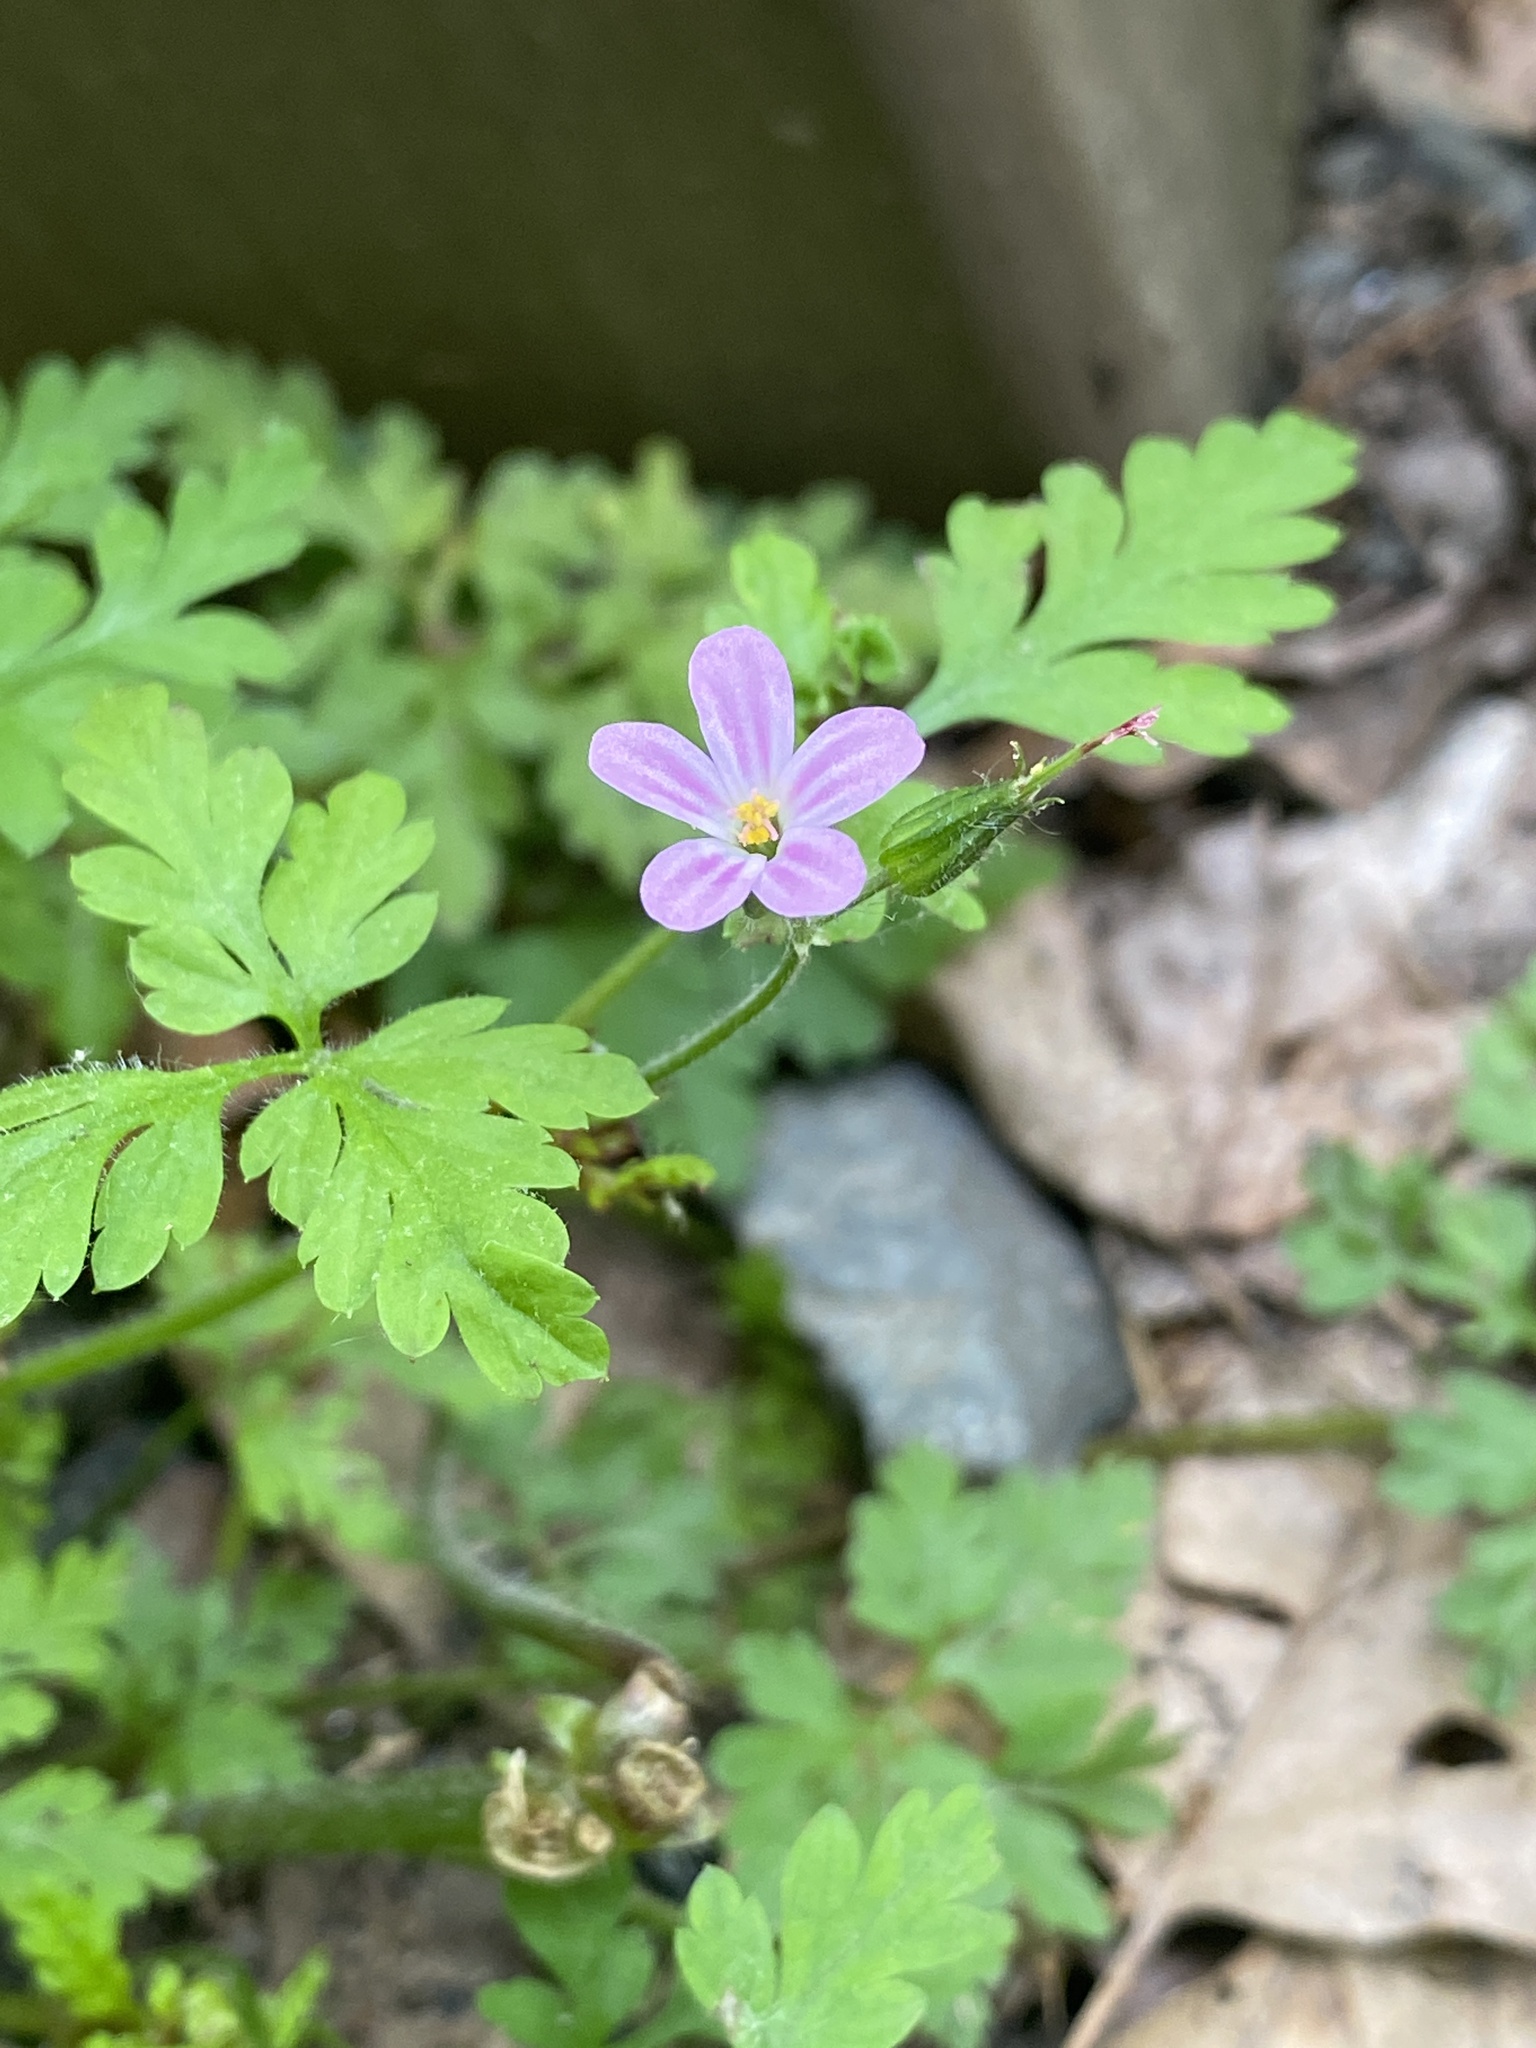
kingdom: Plantae
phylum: Tracheophyta
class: Magnoliopsida
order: Geraniales
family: Geraniaceae
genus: Geranium
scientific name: Geranium robertianum
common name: Herb-robert
